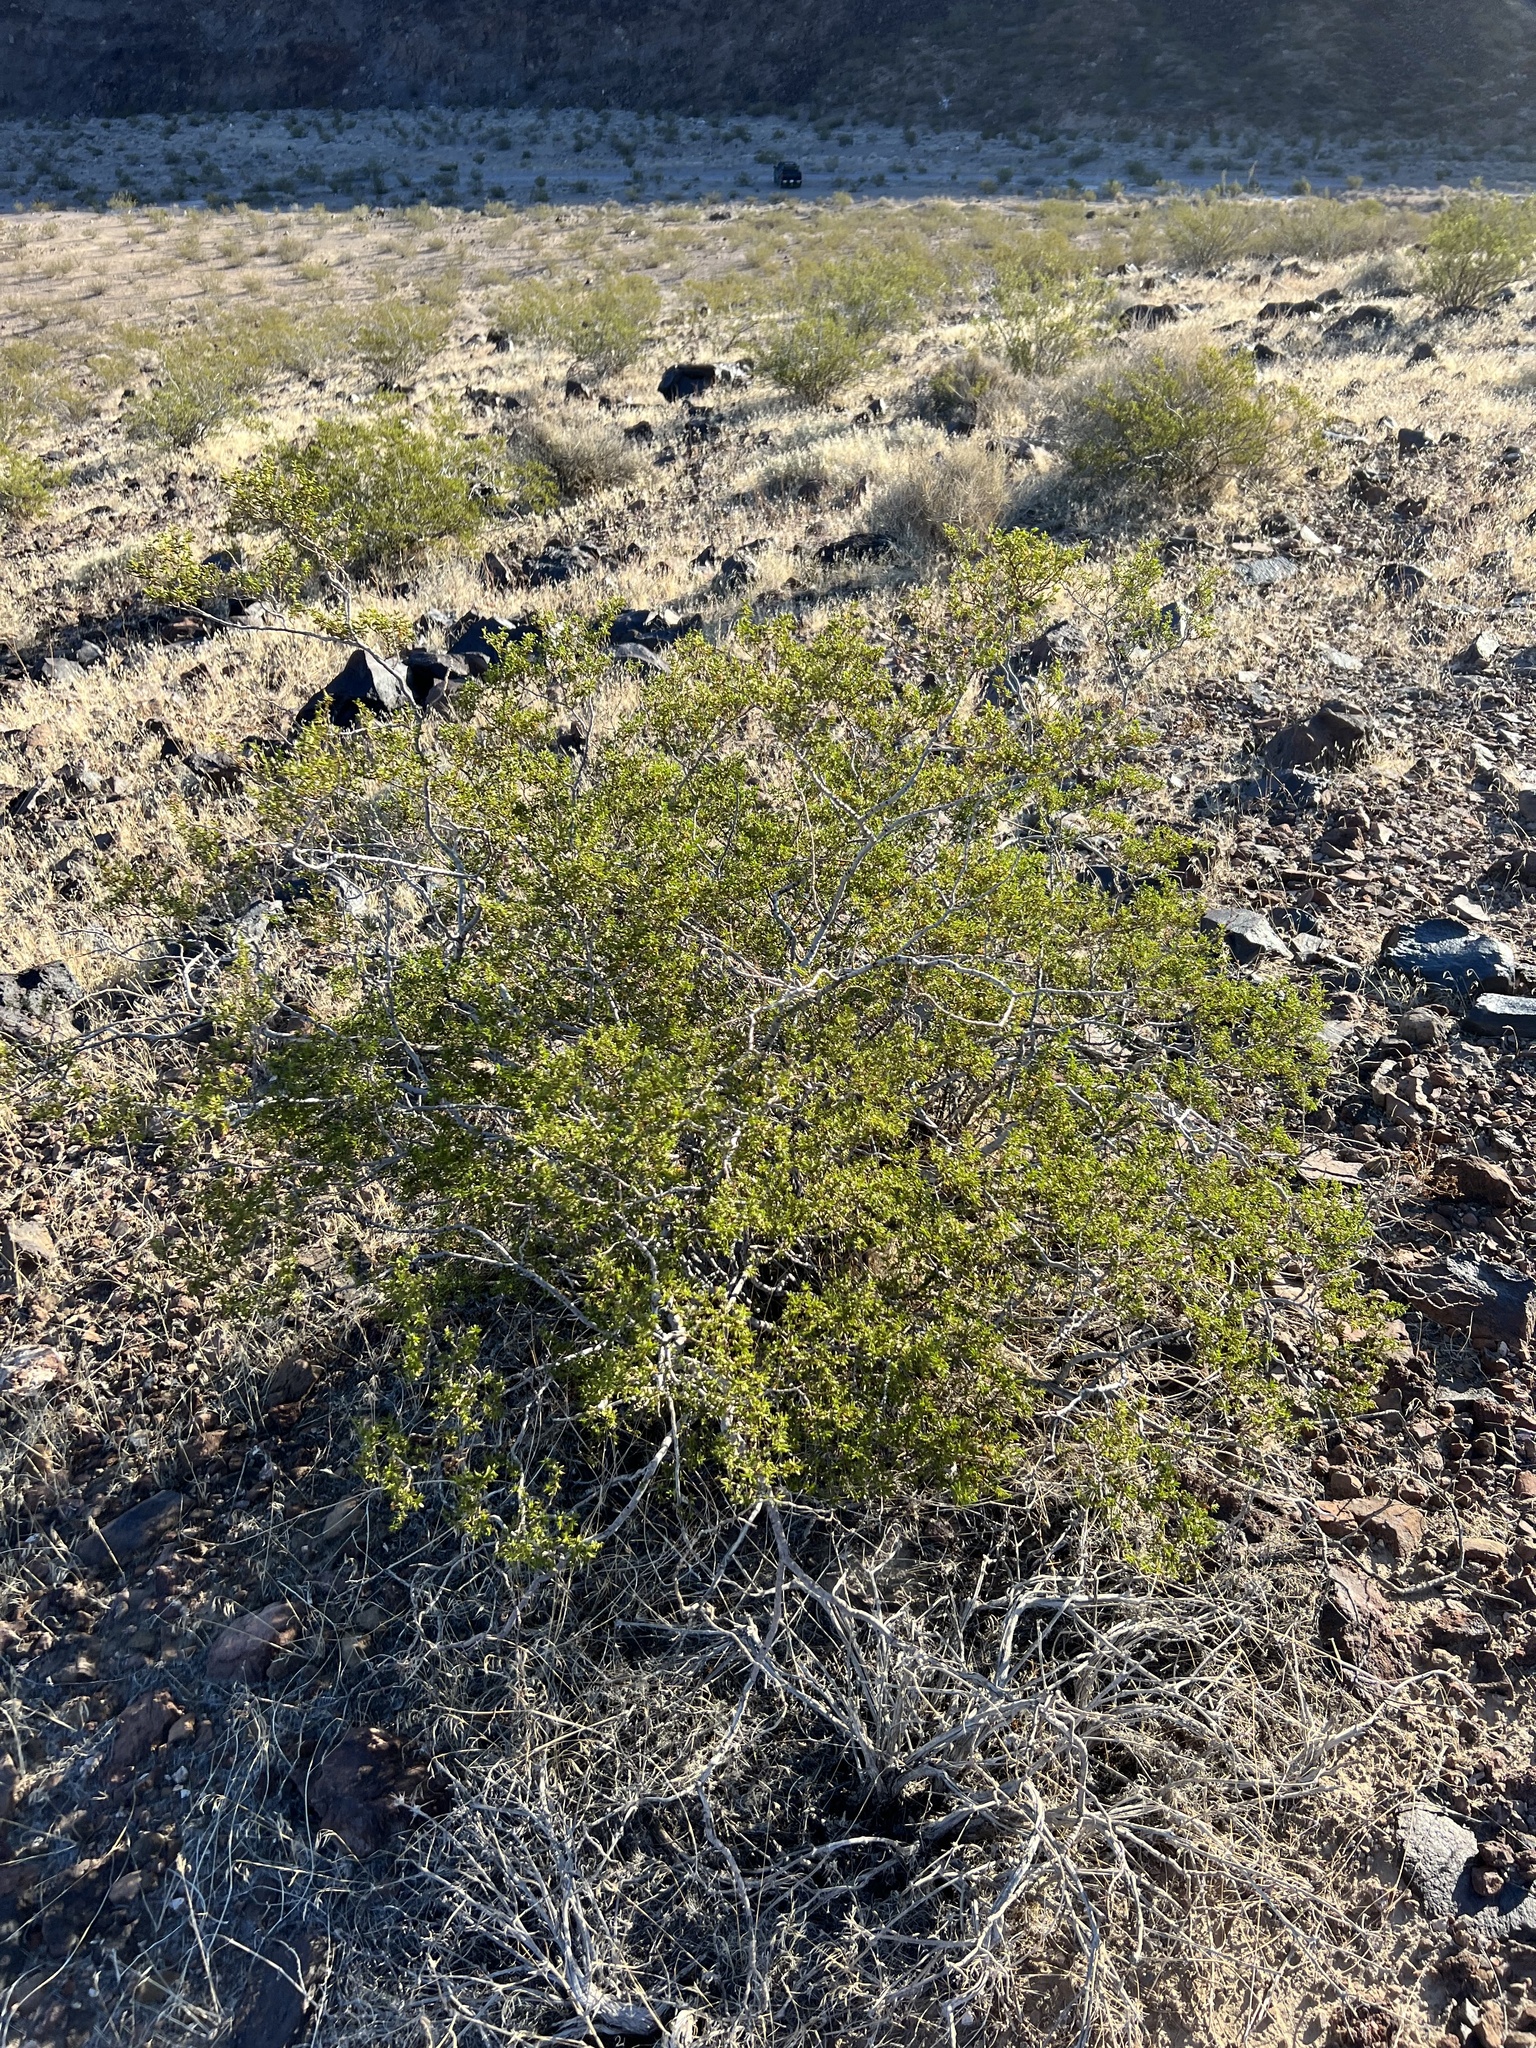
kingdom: Plantae
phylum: Tracheophyta
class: Magnoliopsida
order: Zygophyllales
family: Zygophyllaceae
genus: Larrea
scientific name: Larrea tridentata
